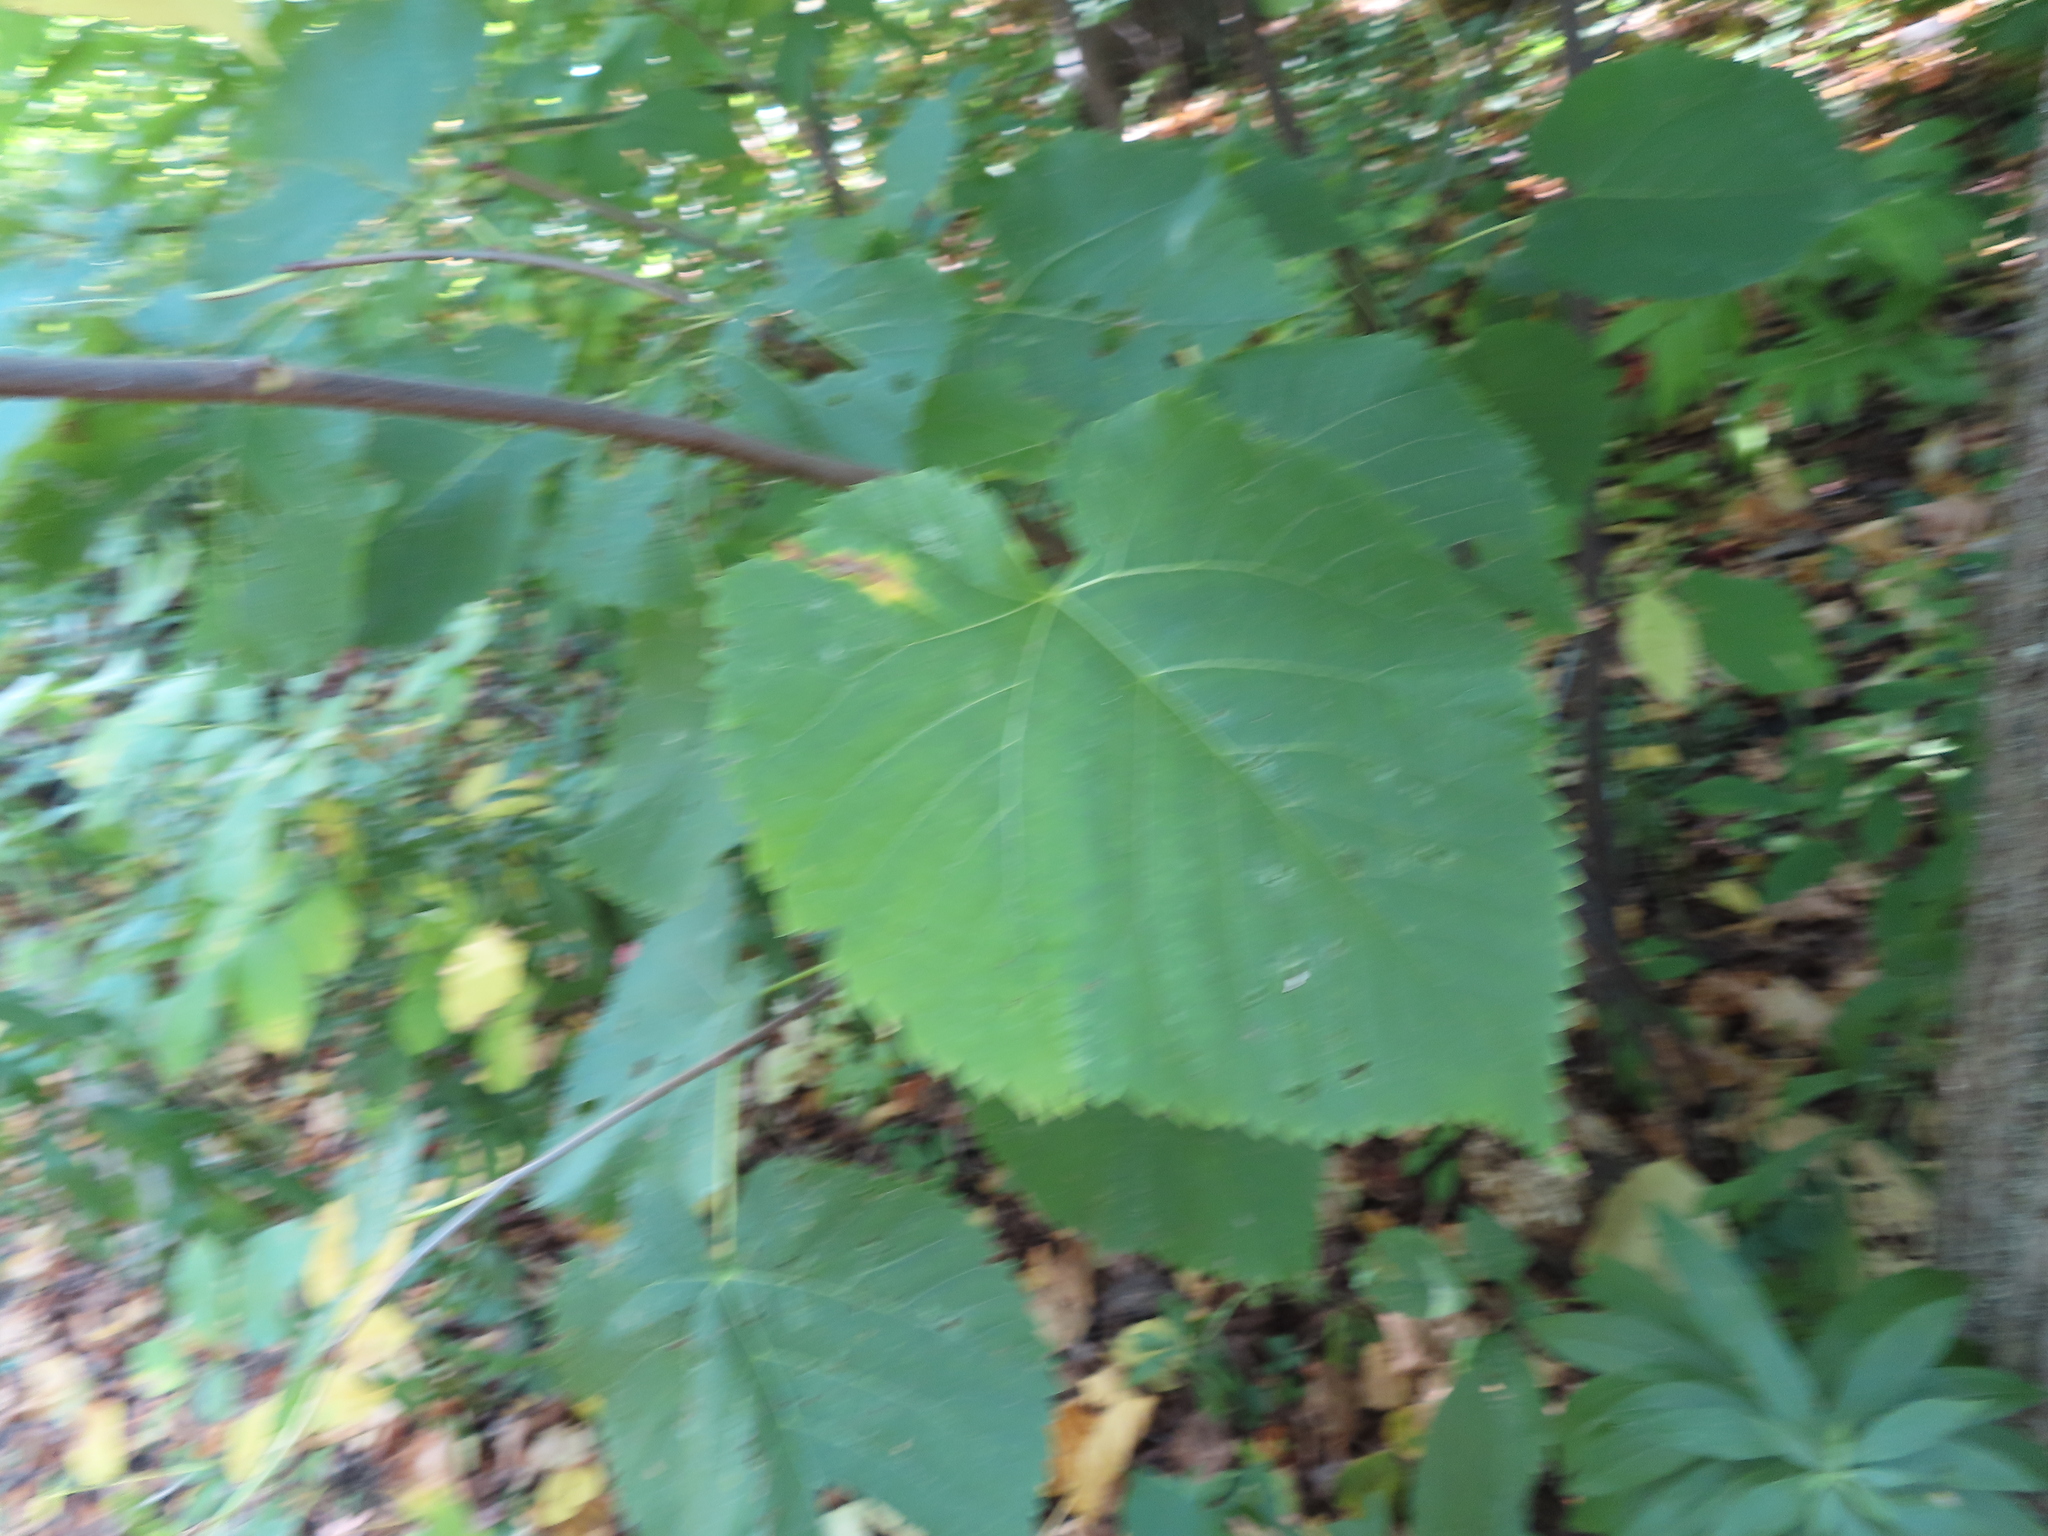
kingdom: Plantae
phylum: Tracheophyta
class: Magnoliopsida
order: Malvales
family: Malvaceae
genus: Tilia
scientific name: Tilia americana
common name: Basswood
